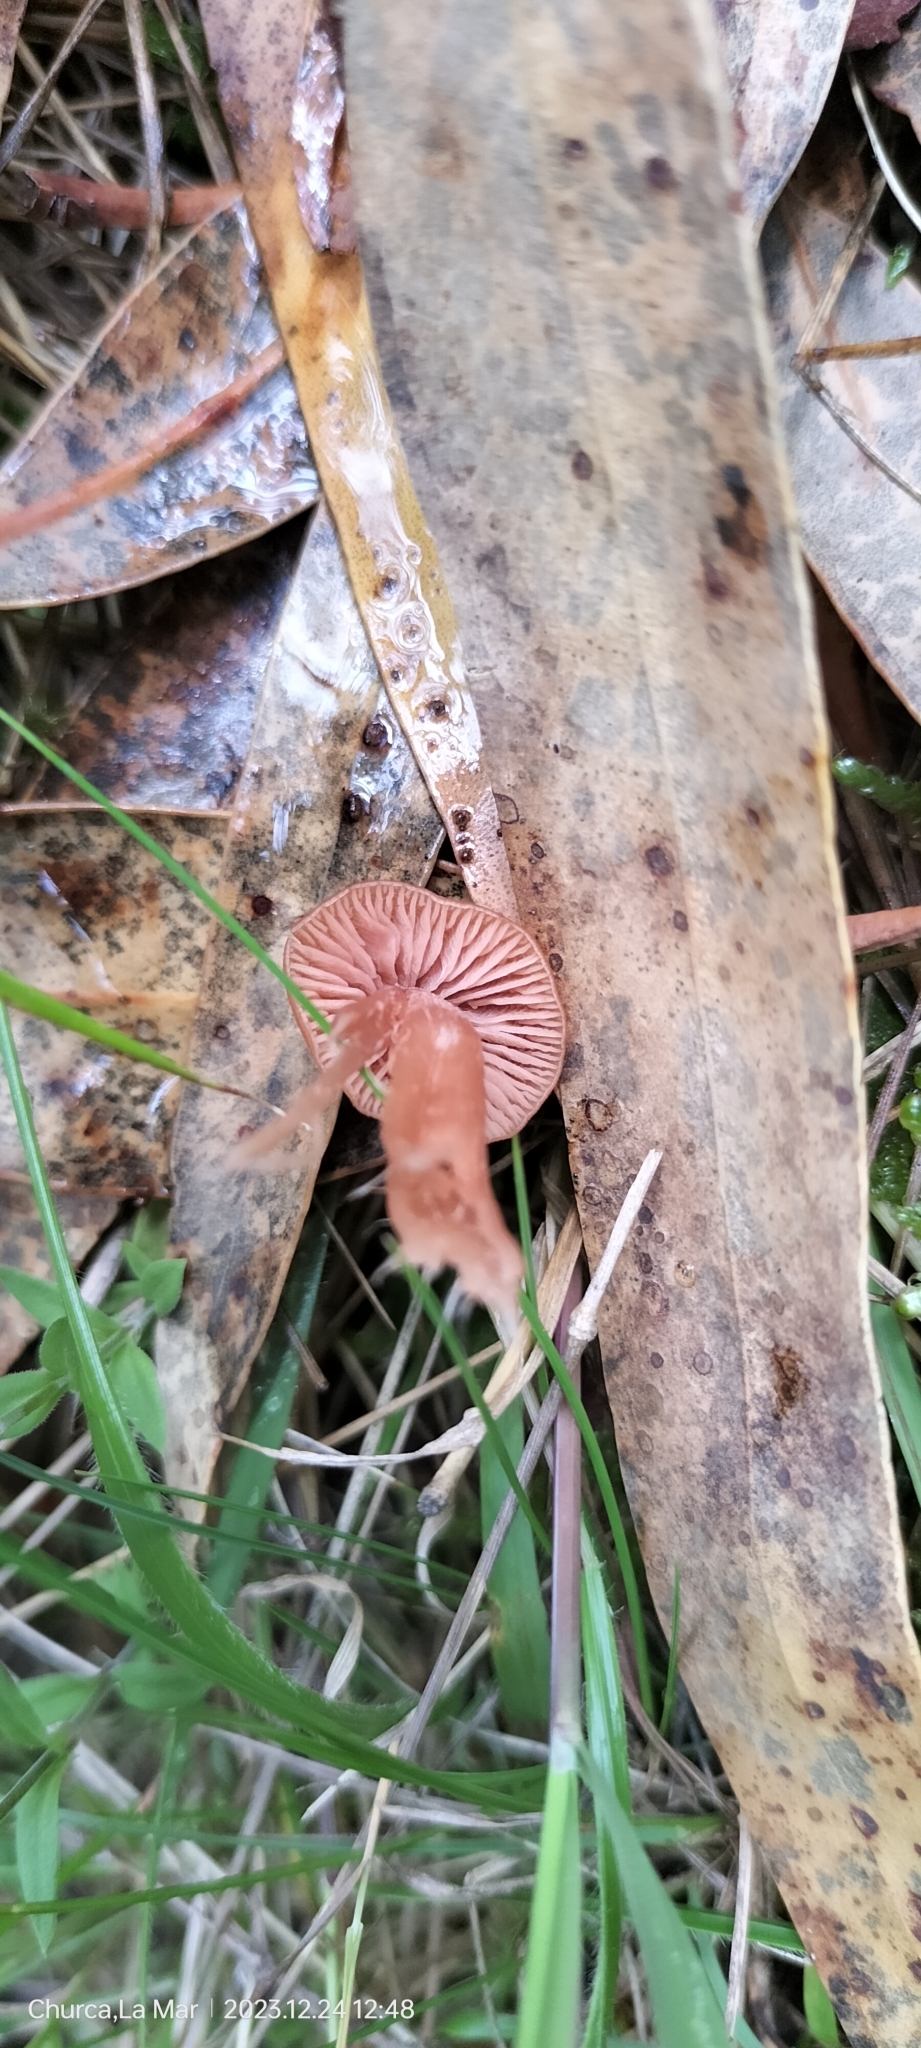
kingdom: Fungi
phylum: Basidiomycota
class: Agaricomycetes
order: Agaricales
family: Hydnangiaceae
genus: Laccaria
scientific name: Laccaria laccata
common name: Deceiver
